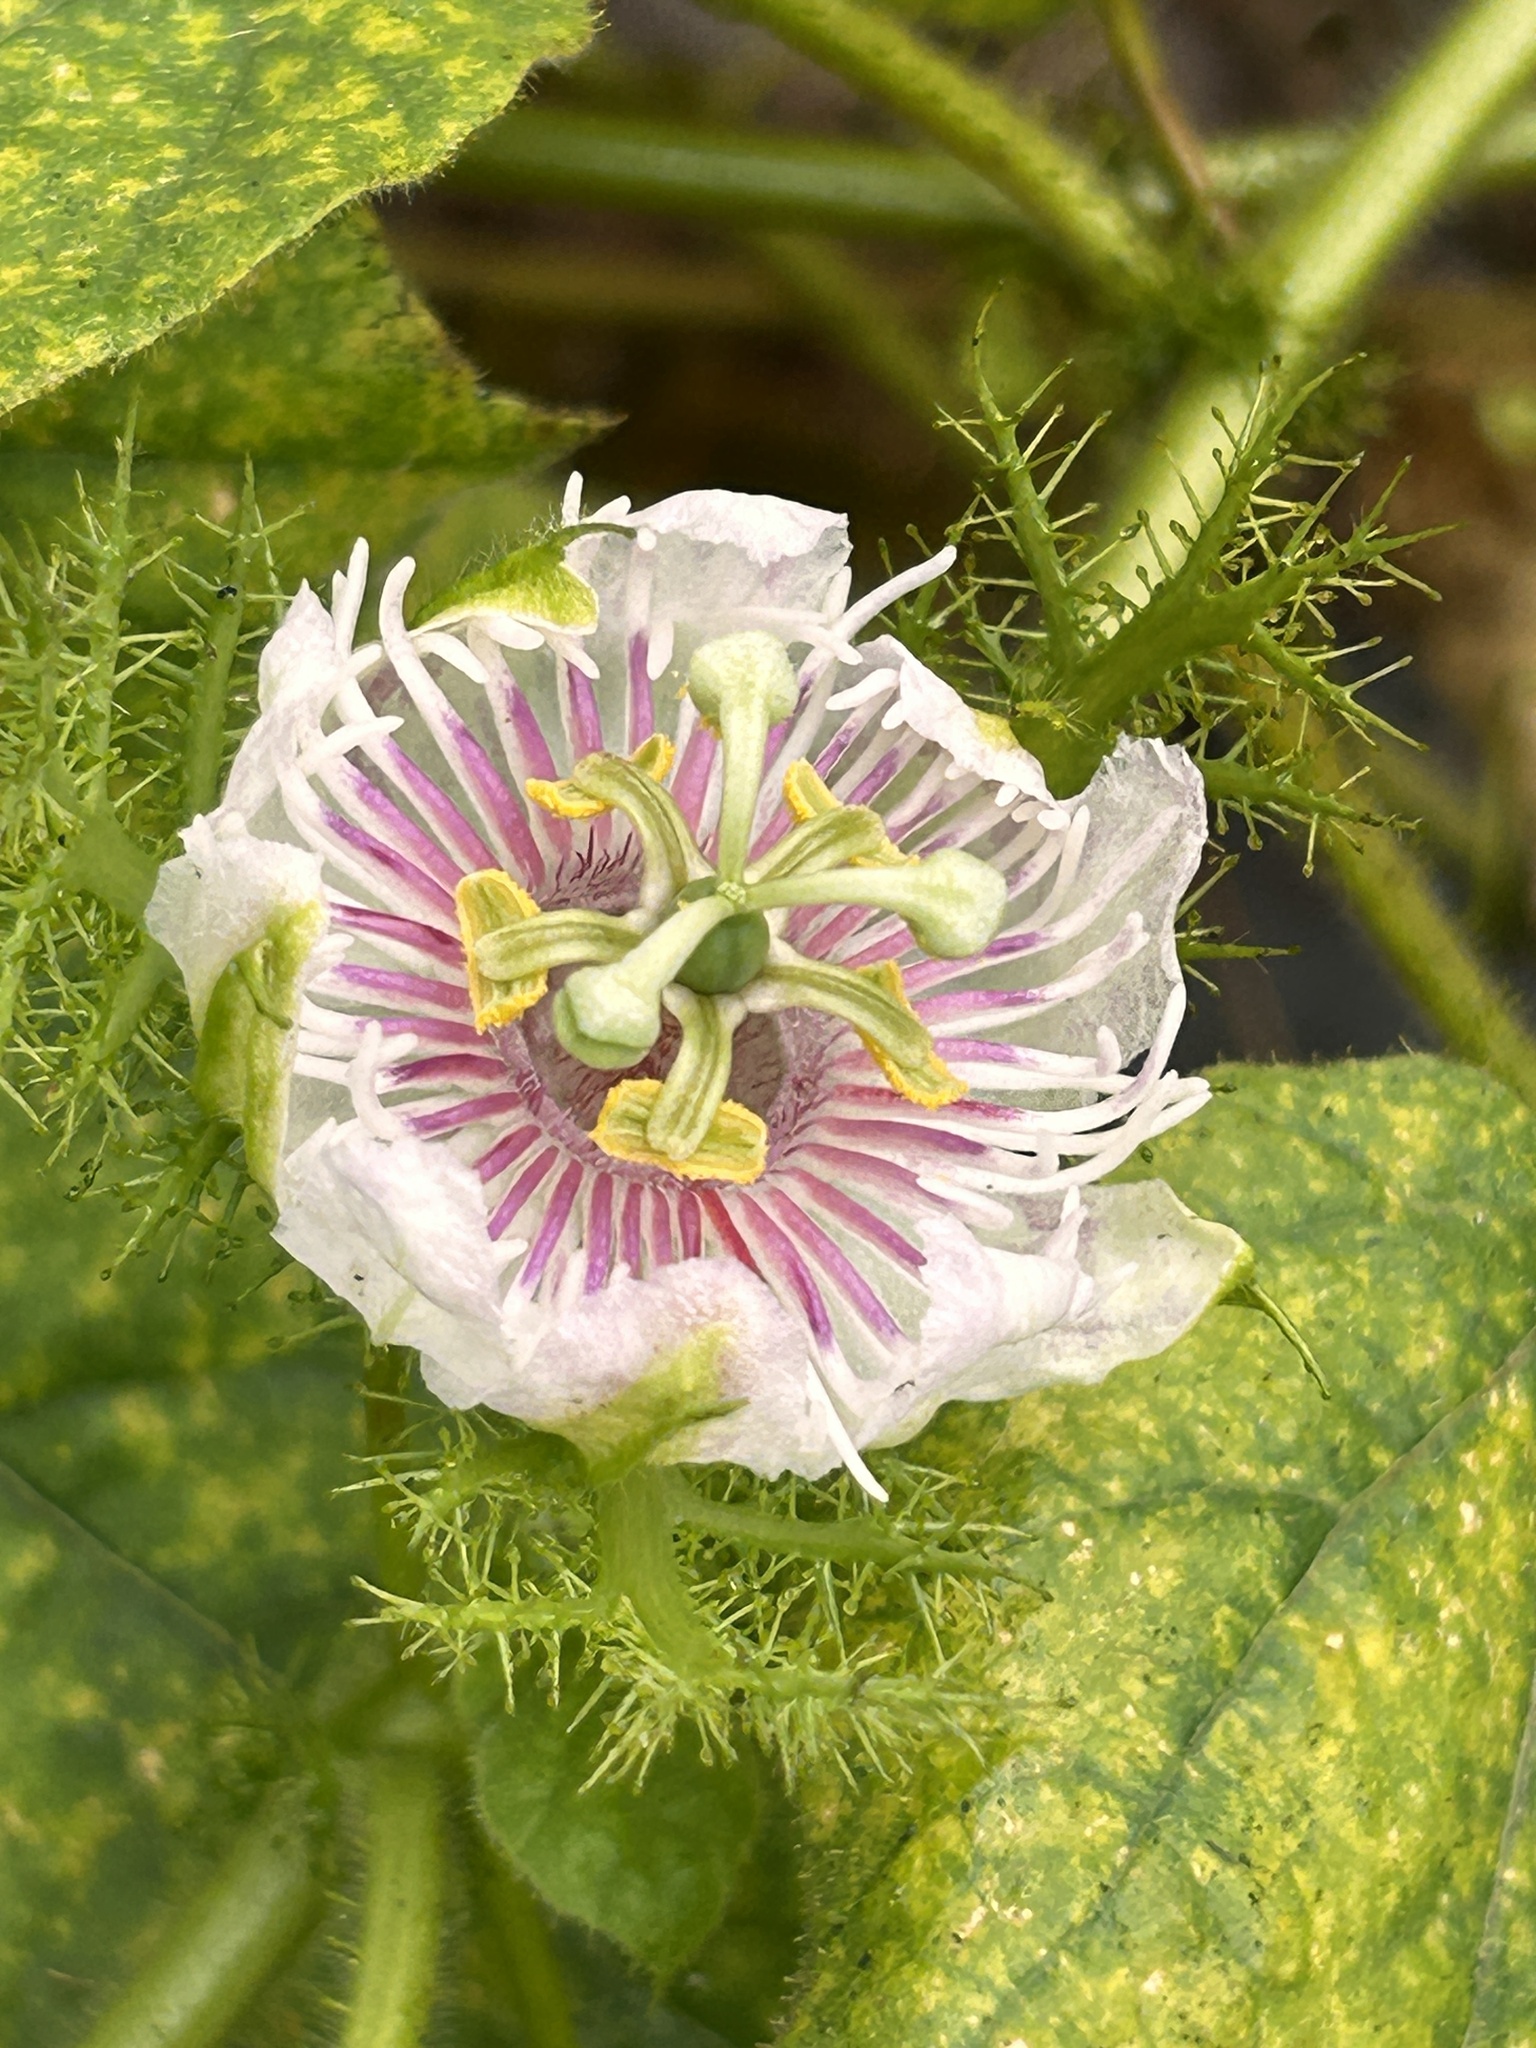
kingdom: Plantae
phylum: Tracheophyta
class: Magnoliopsida
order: Malpighiales
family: Passifloraceae
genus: Passiflora
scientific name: Passiflora vesicaria
